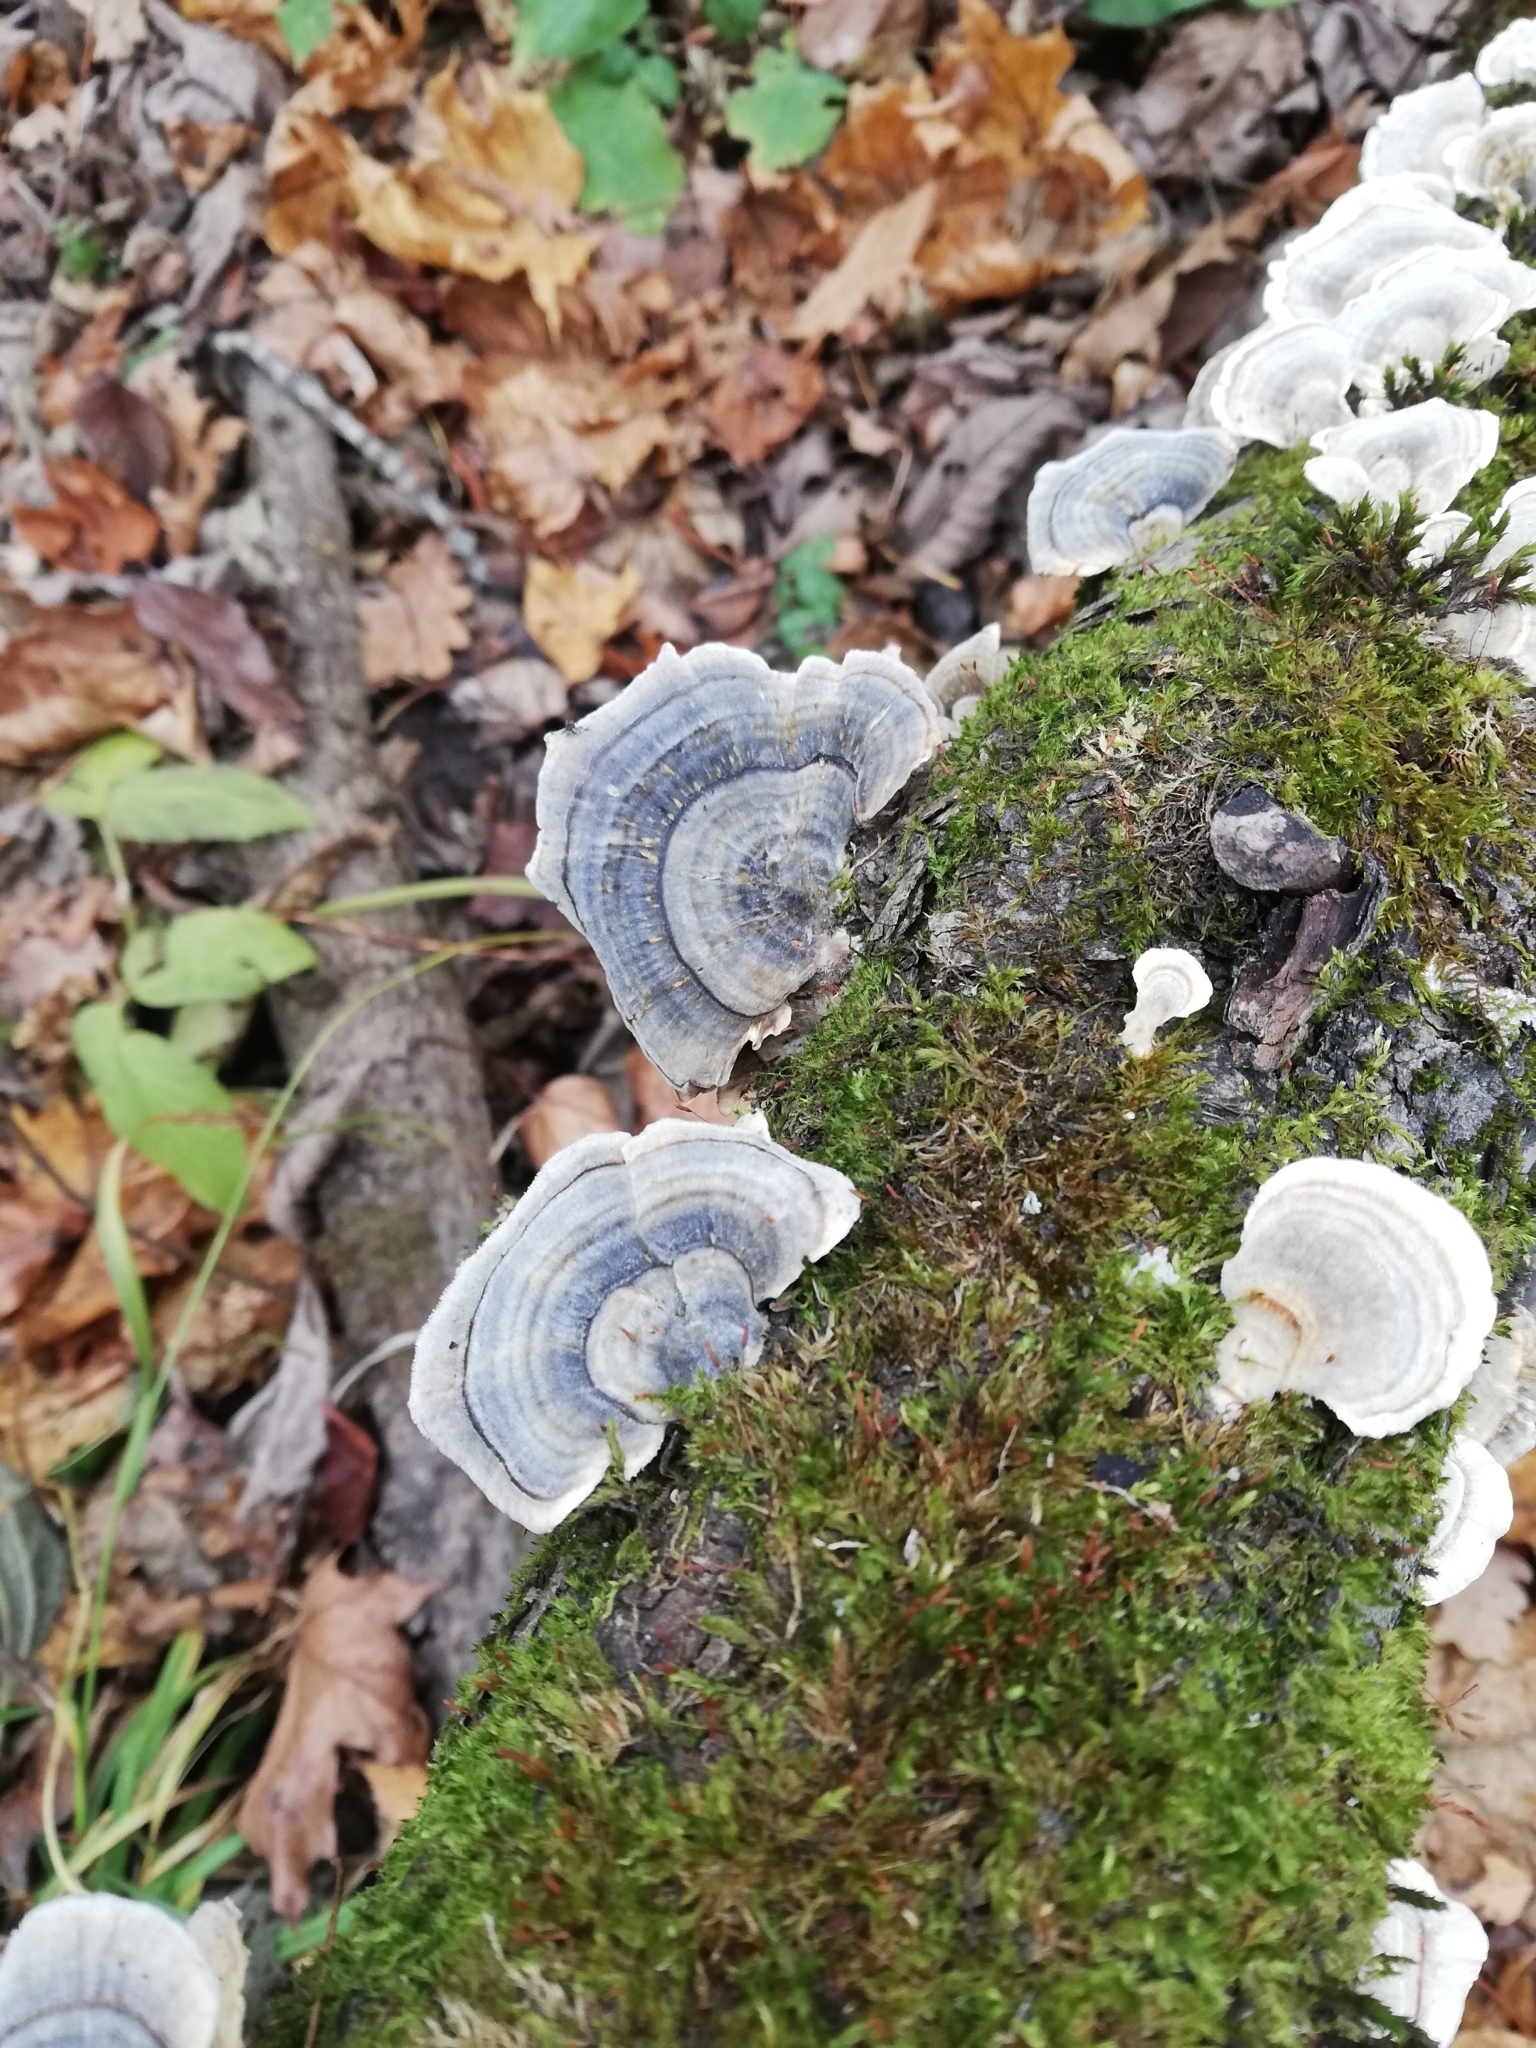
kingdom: Fungi
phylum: Basidiomycota
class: Agaricomycetes
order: Polyporales
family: Polyporaceae
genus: Trametes
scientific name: Trametes versicolor
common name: Turkeytail
